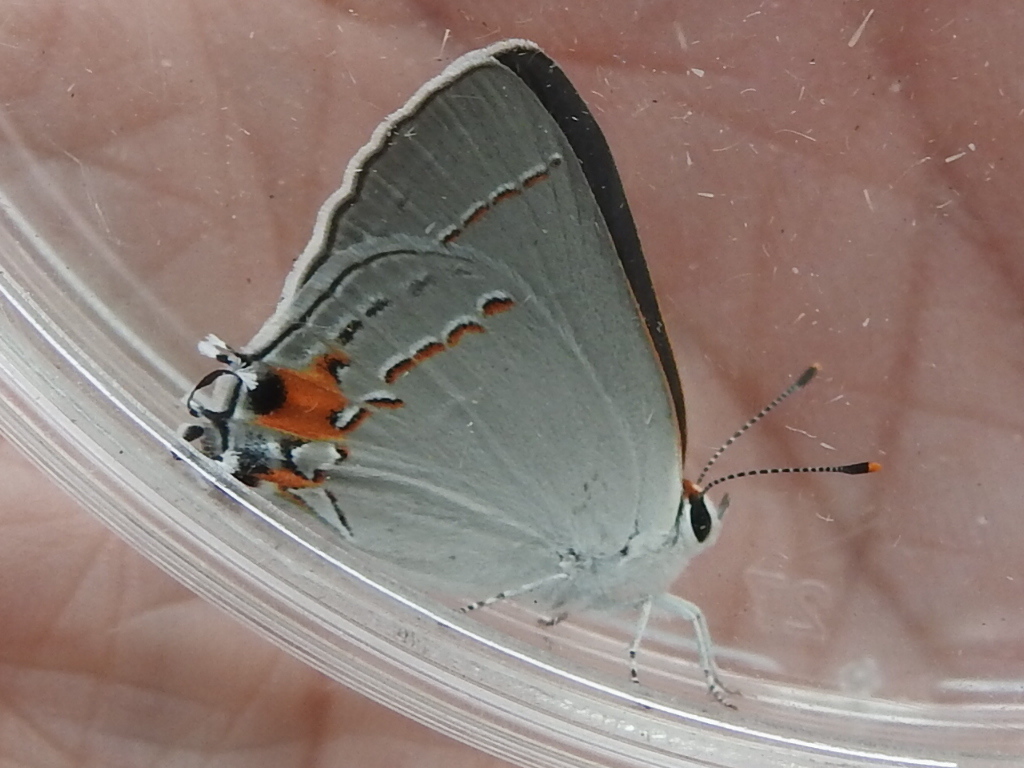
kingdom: Animalia
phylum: Arthropoda
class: Insecta
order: Lepidoptera
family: Lycaenidae
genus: Strymon
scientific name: Strymon melinus
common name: Gray hairstreak
